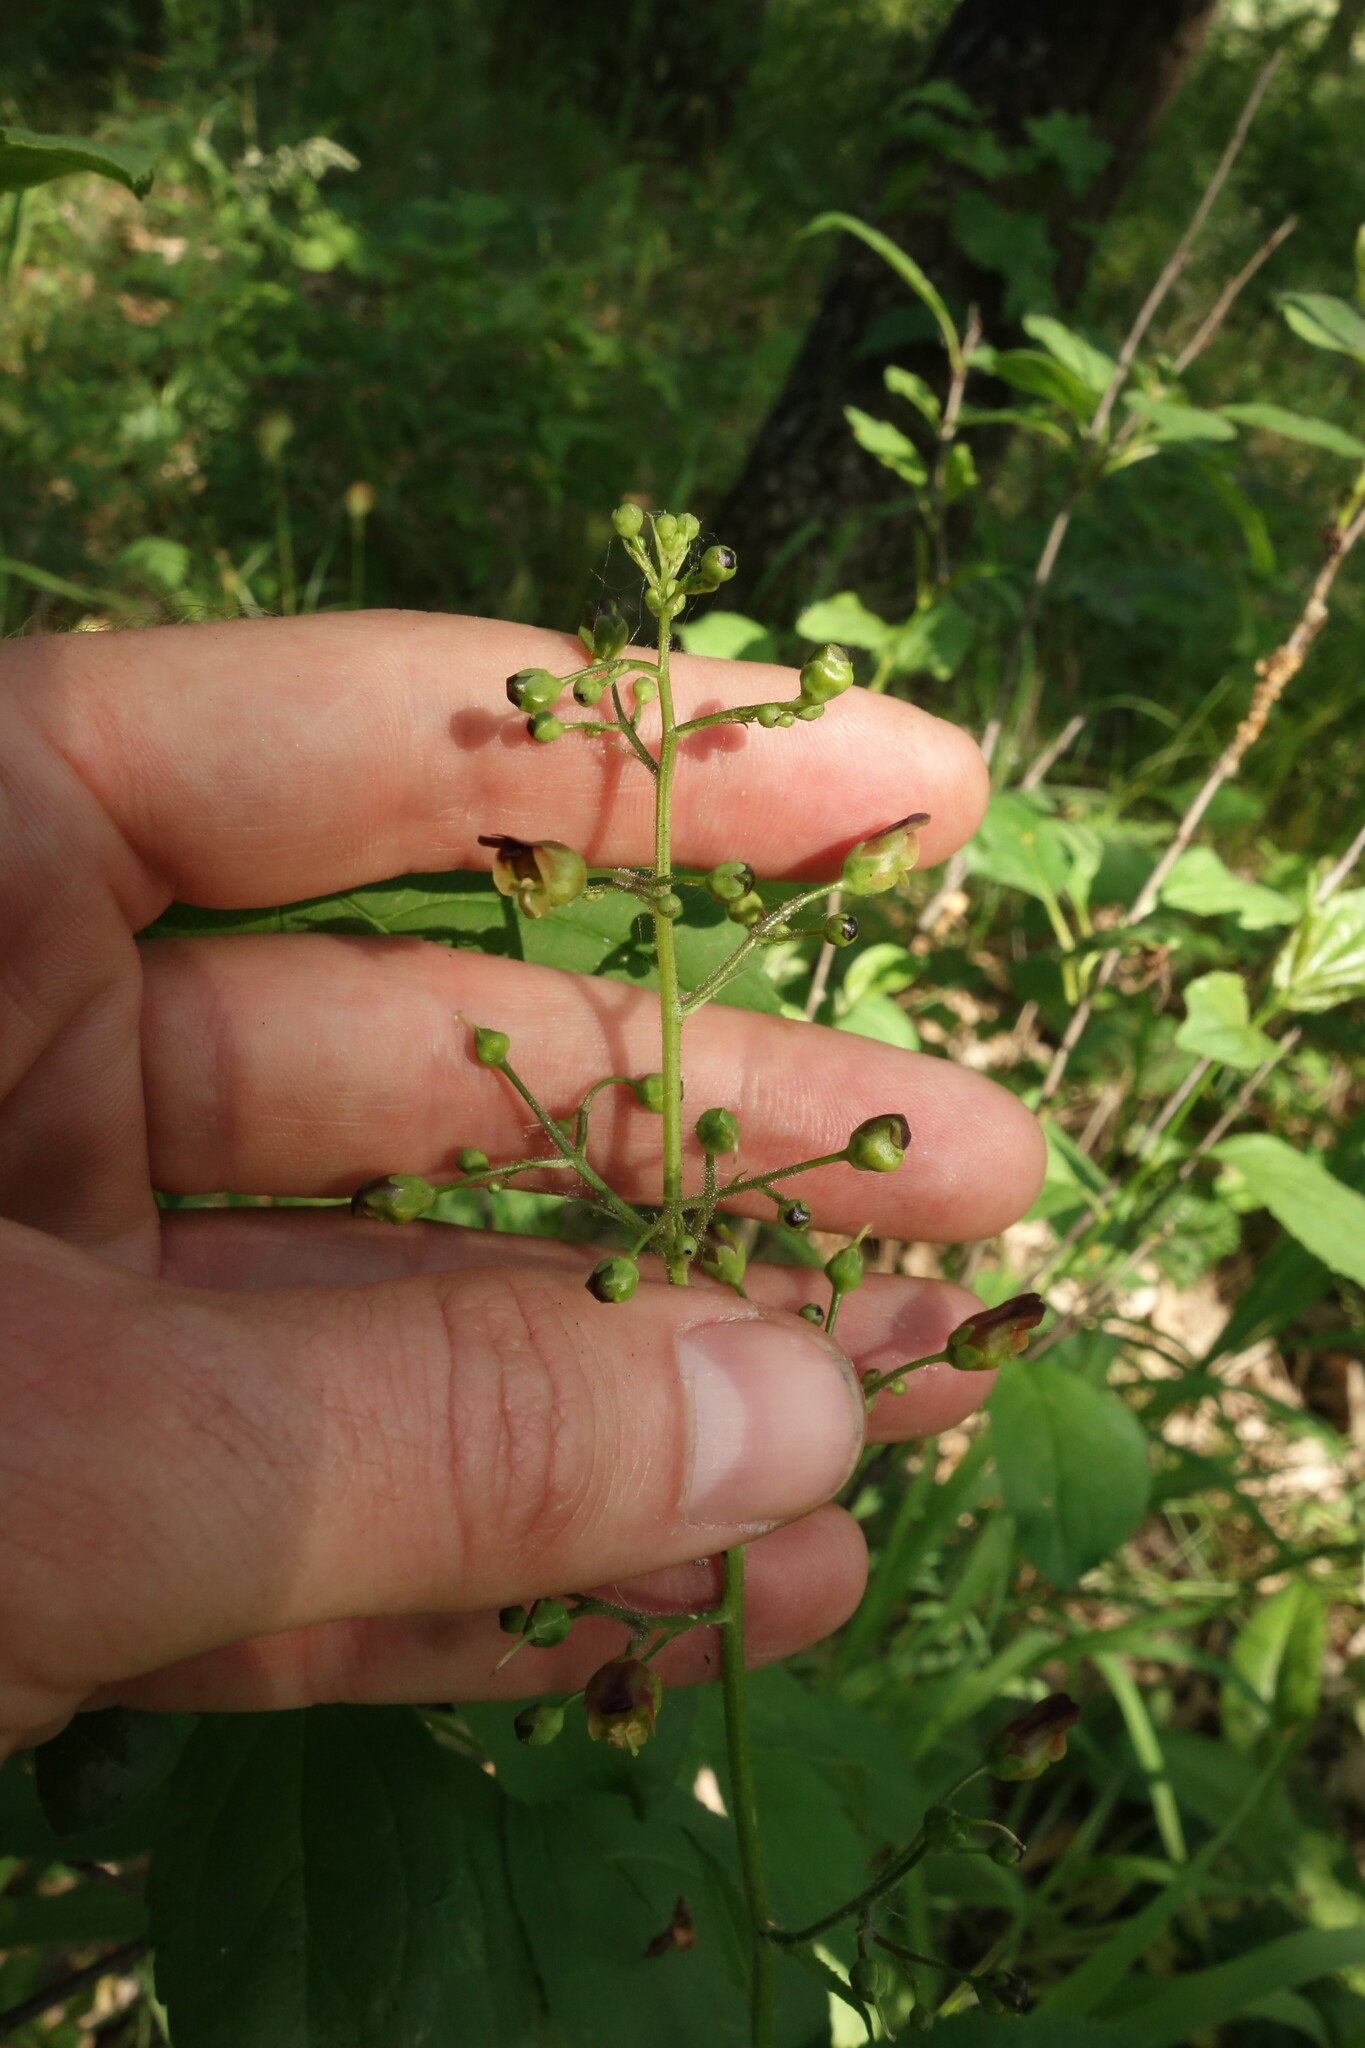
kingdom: Plantae
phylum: Tracheophyta
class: Magnoliopsida
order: Lamiales
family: Scrophulariaceae
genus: Scrophularia
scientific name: Scrophularia nodosa
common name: Common figwort
